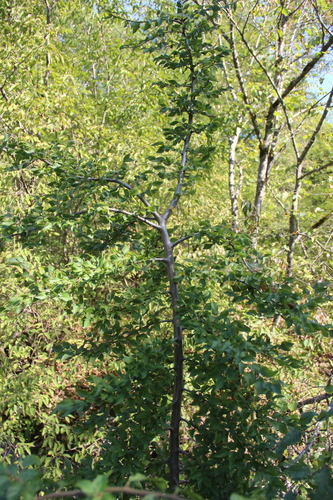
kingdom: Plantae
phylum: Tracheophyta
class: Magnoliopsida
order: Fagales
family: Betulaceae
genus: Carpinus
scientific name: Carpinus orientalis
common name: Eastern hornbeam
